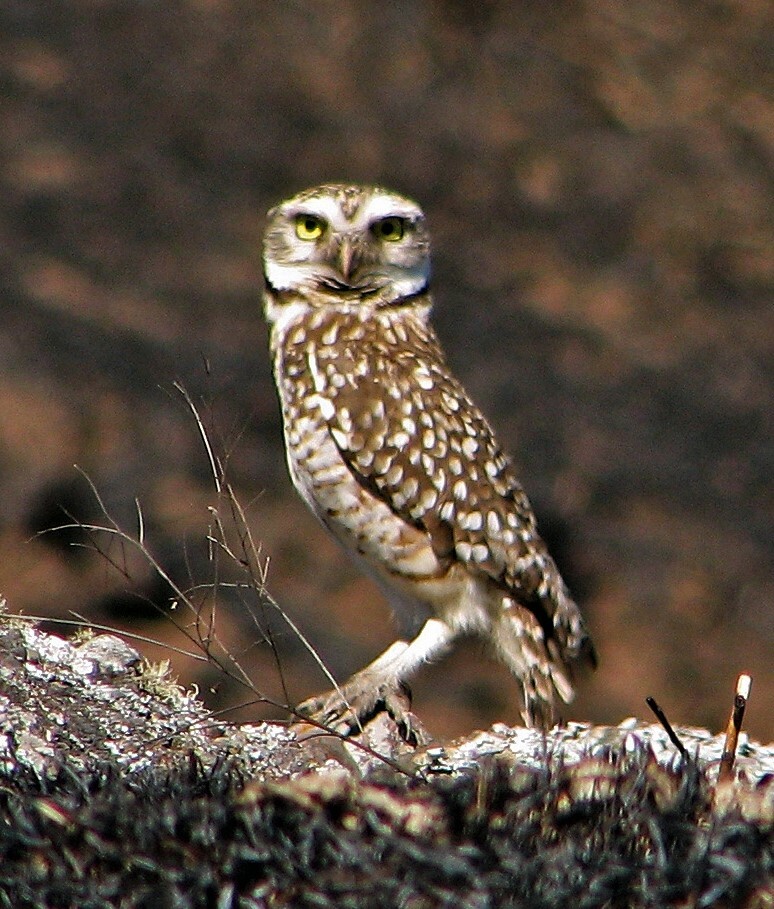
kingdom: Animalia
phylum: Chordata
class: Aves
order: Strigiformes
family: Strigidae
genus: Athene
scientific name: Athene cunicularia
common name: Burrowing owl
